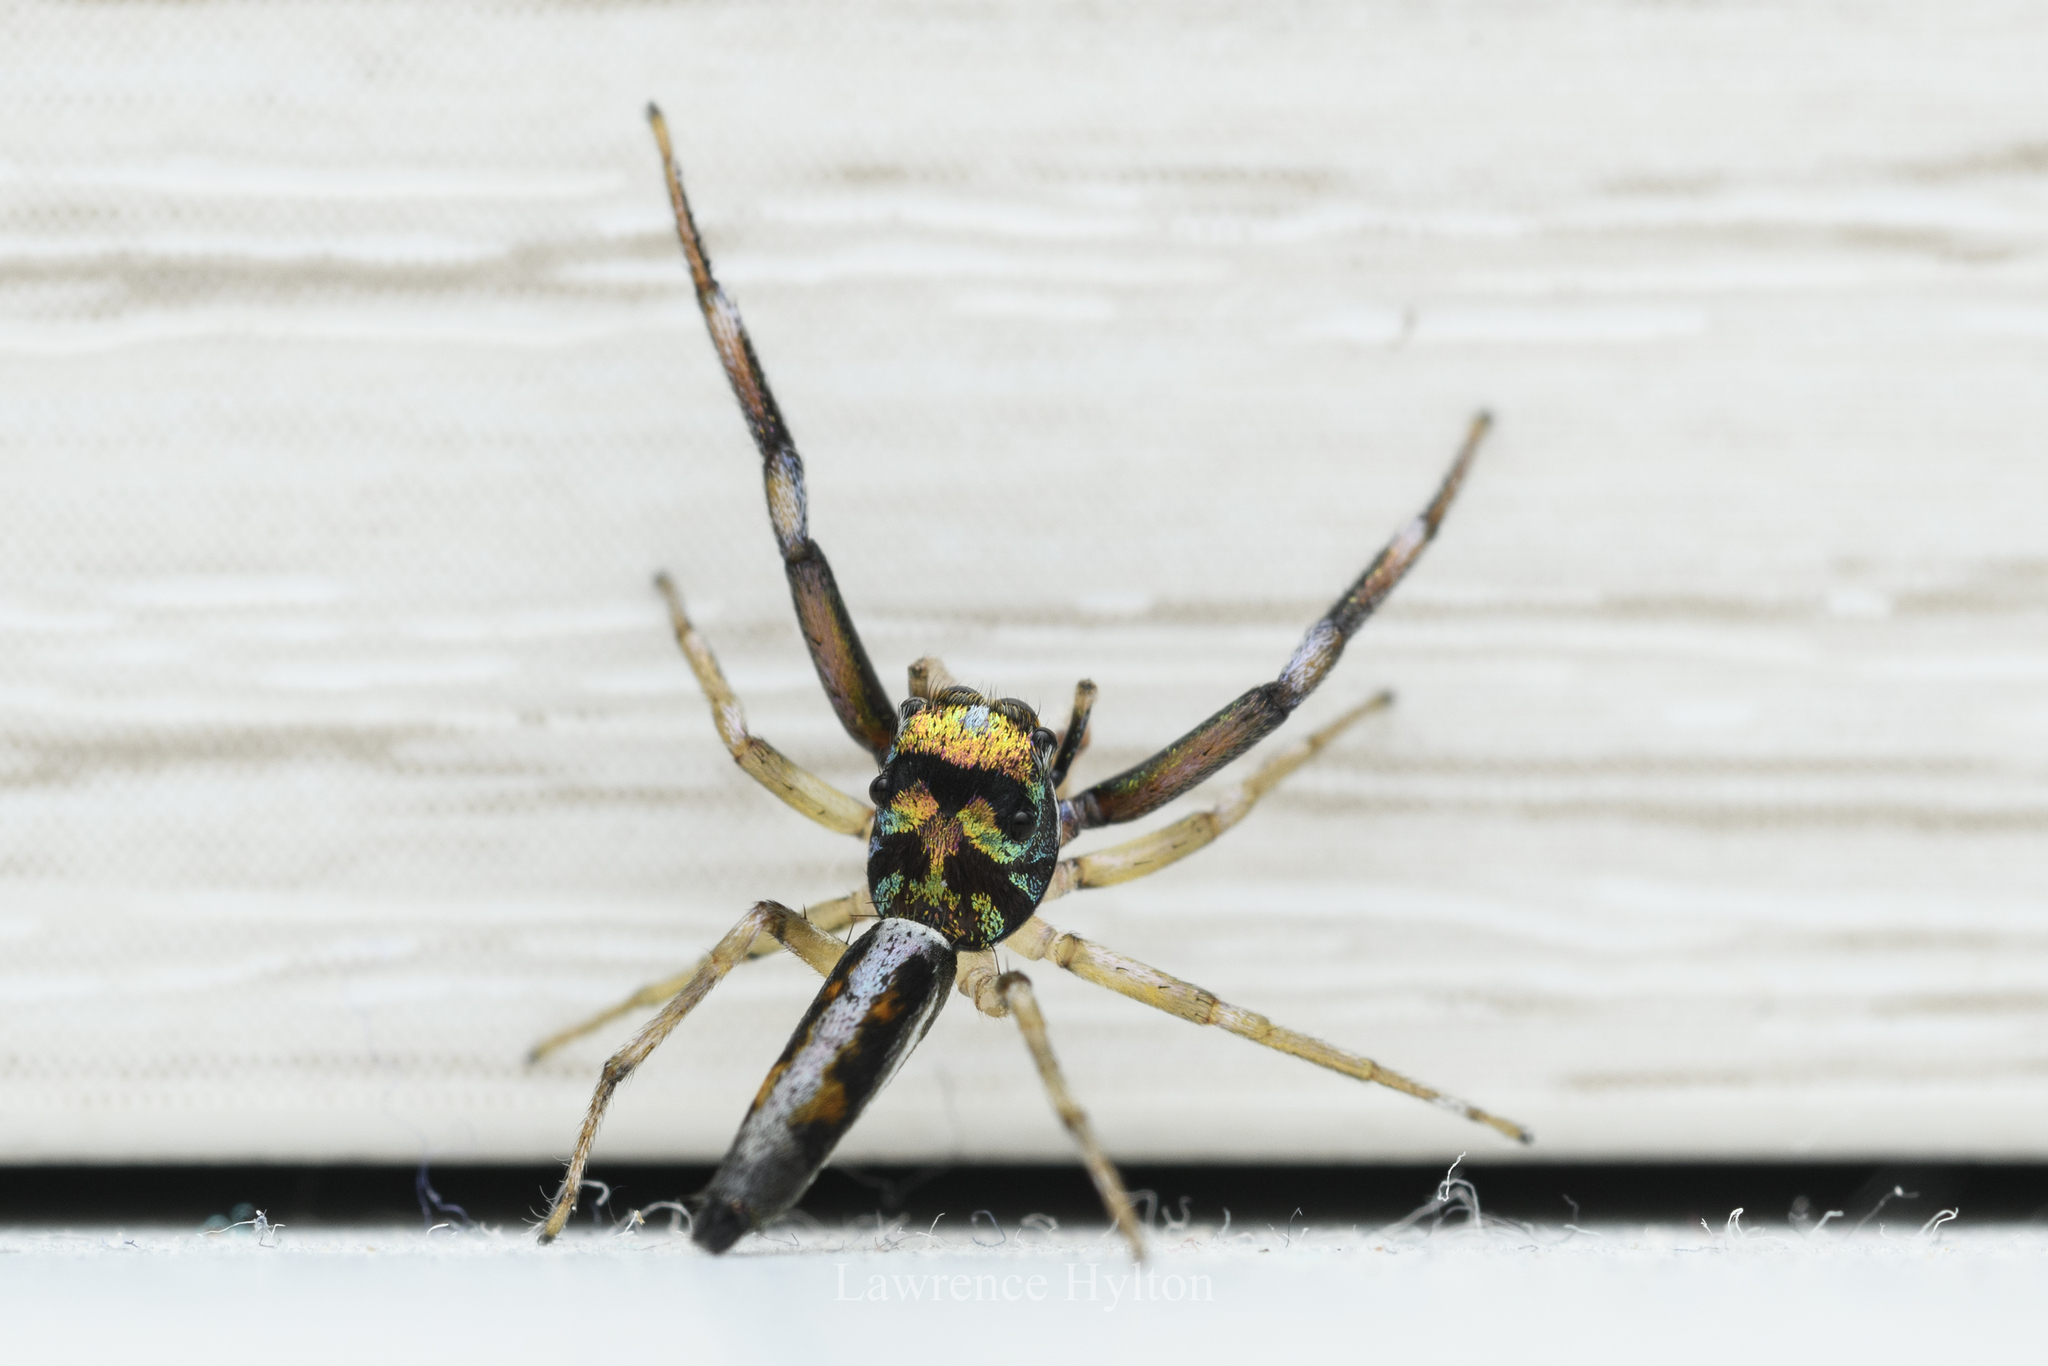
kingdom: Animalia
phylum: Arthropoda
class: Arachnida
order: Araneae
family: Salticidae
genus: Chrysilla
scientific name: Chrysilla acerosa
